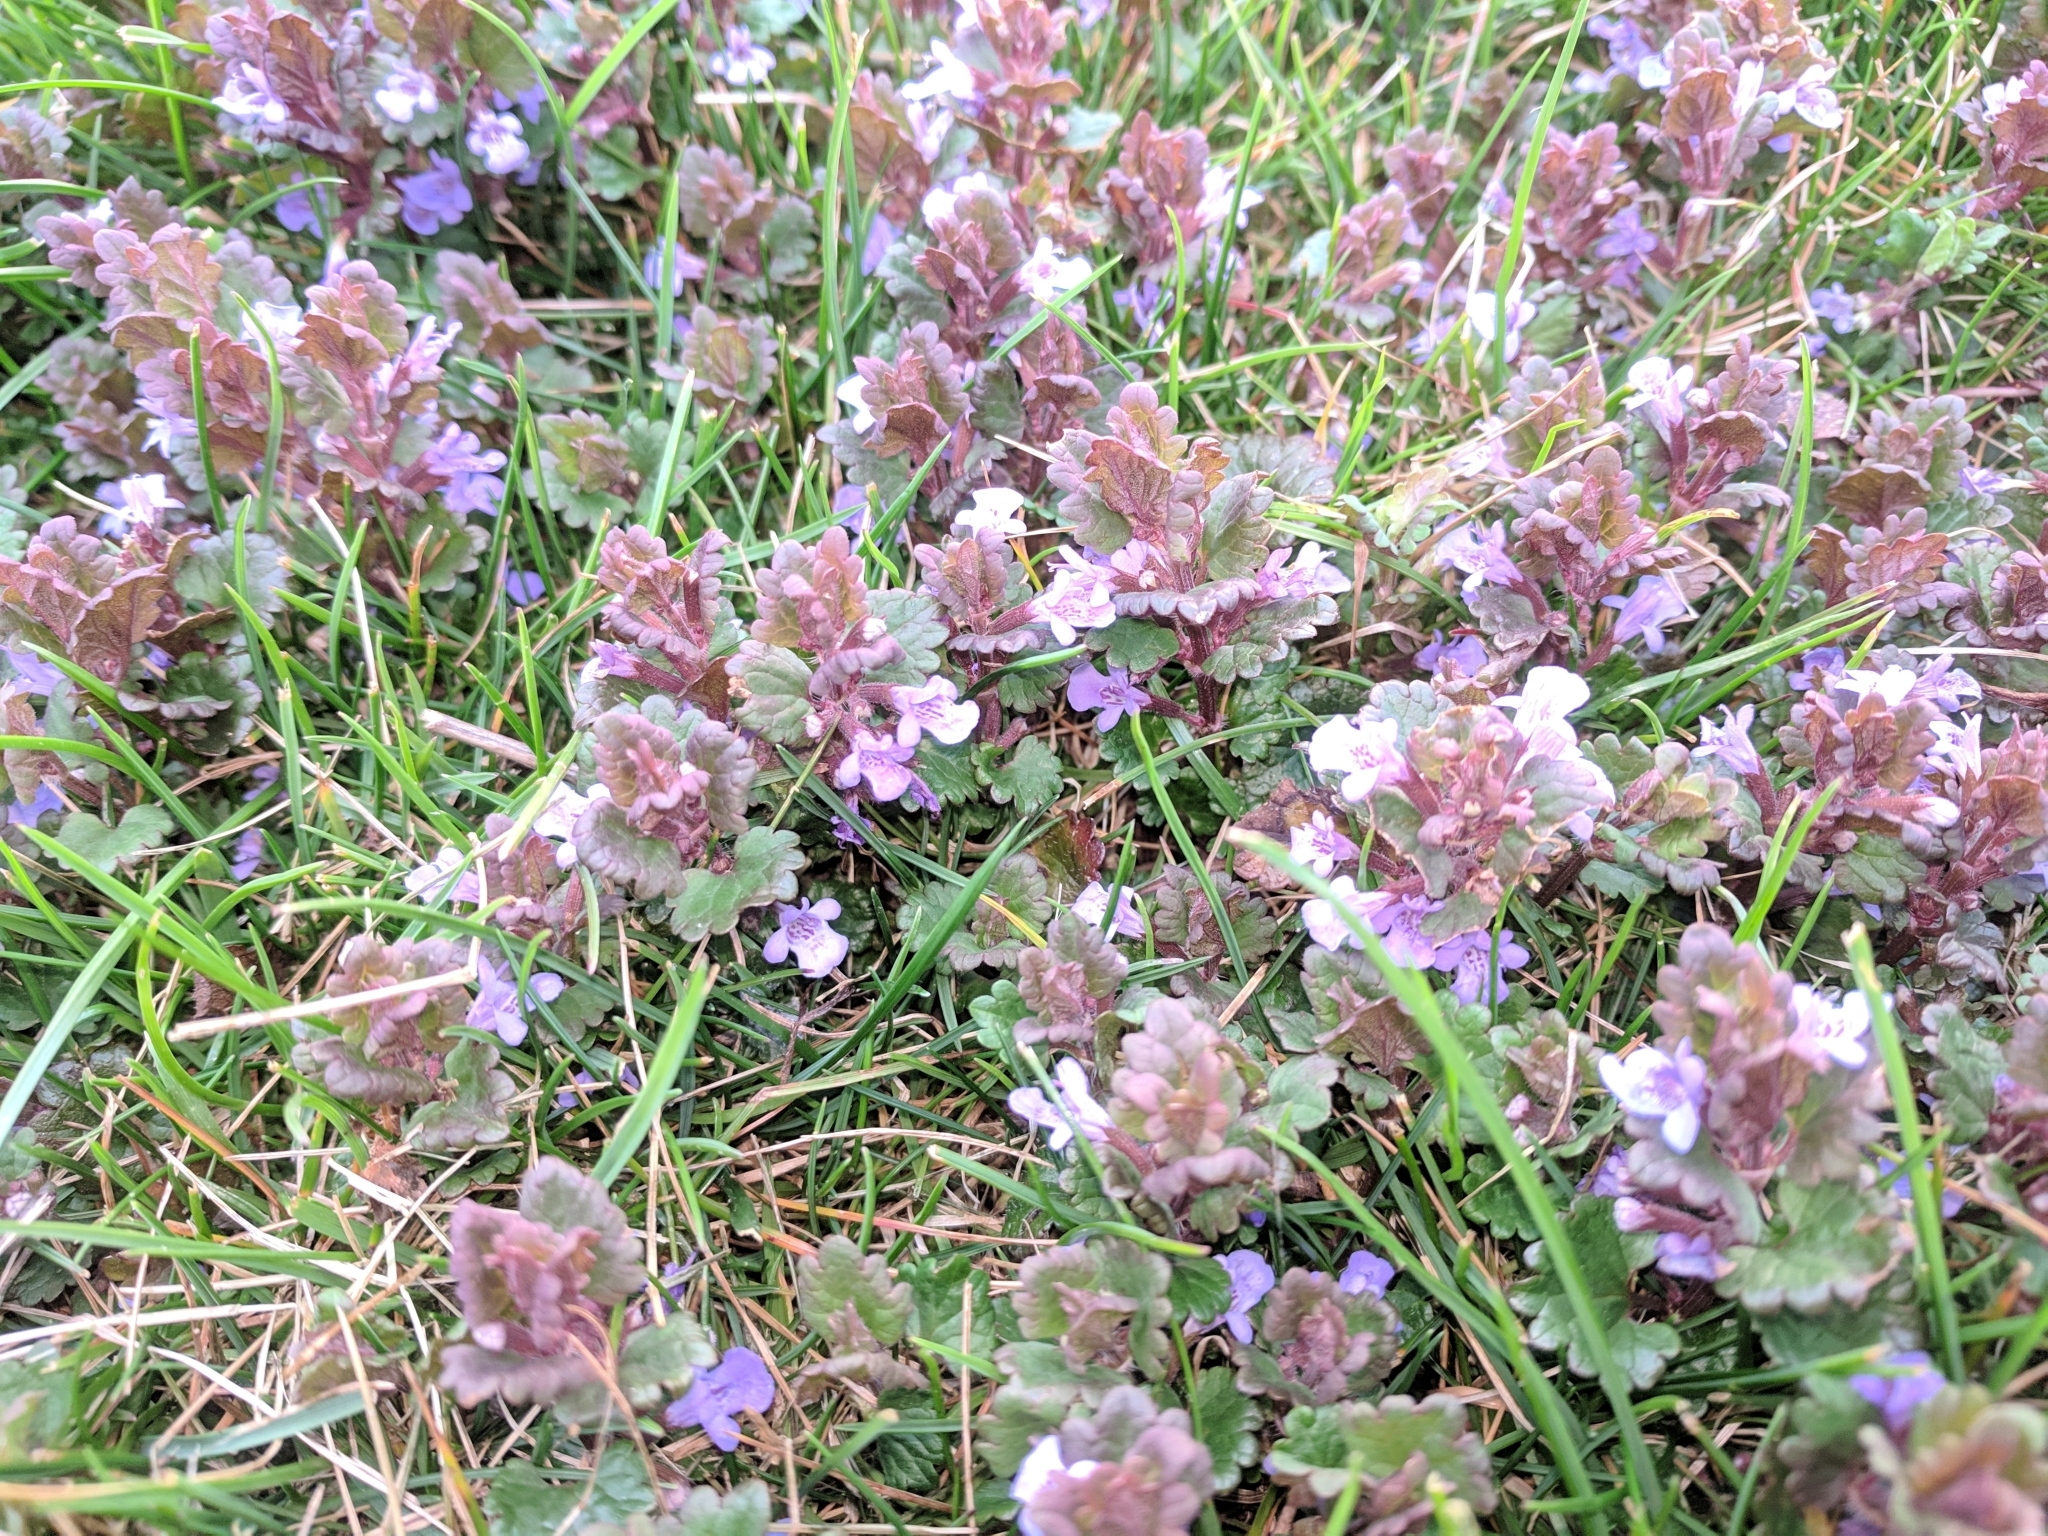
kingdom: Plantae
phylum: Tracheophyta
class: Magnoliopsida
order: Lamiales
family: Lamiaceae
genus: Glechoma
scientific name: Glechoma hederacea
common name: Ground ivy
